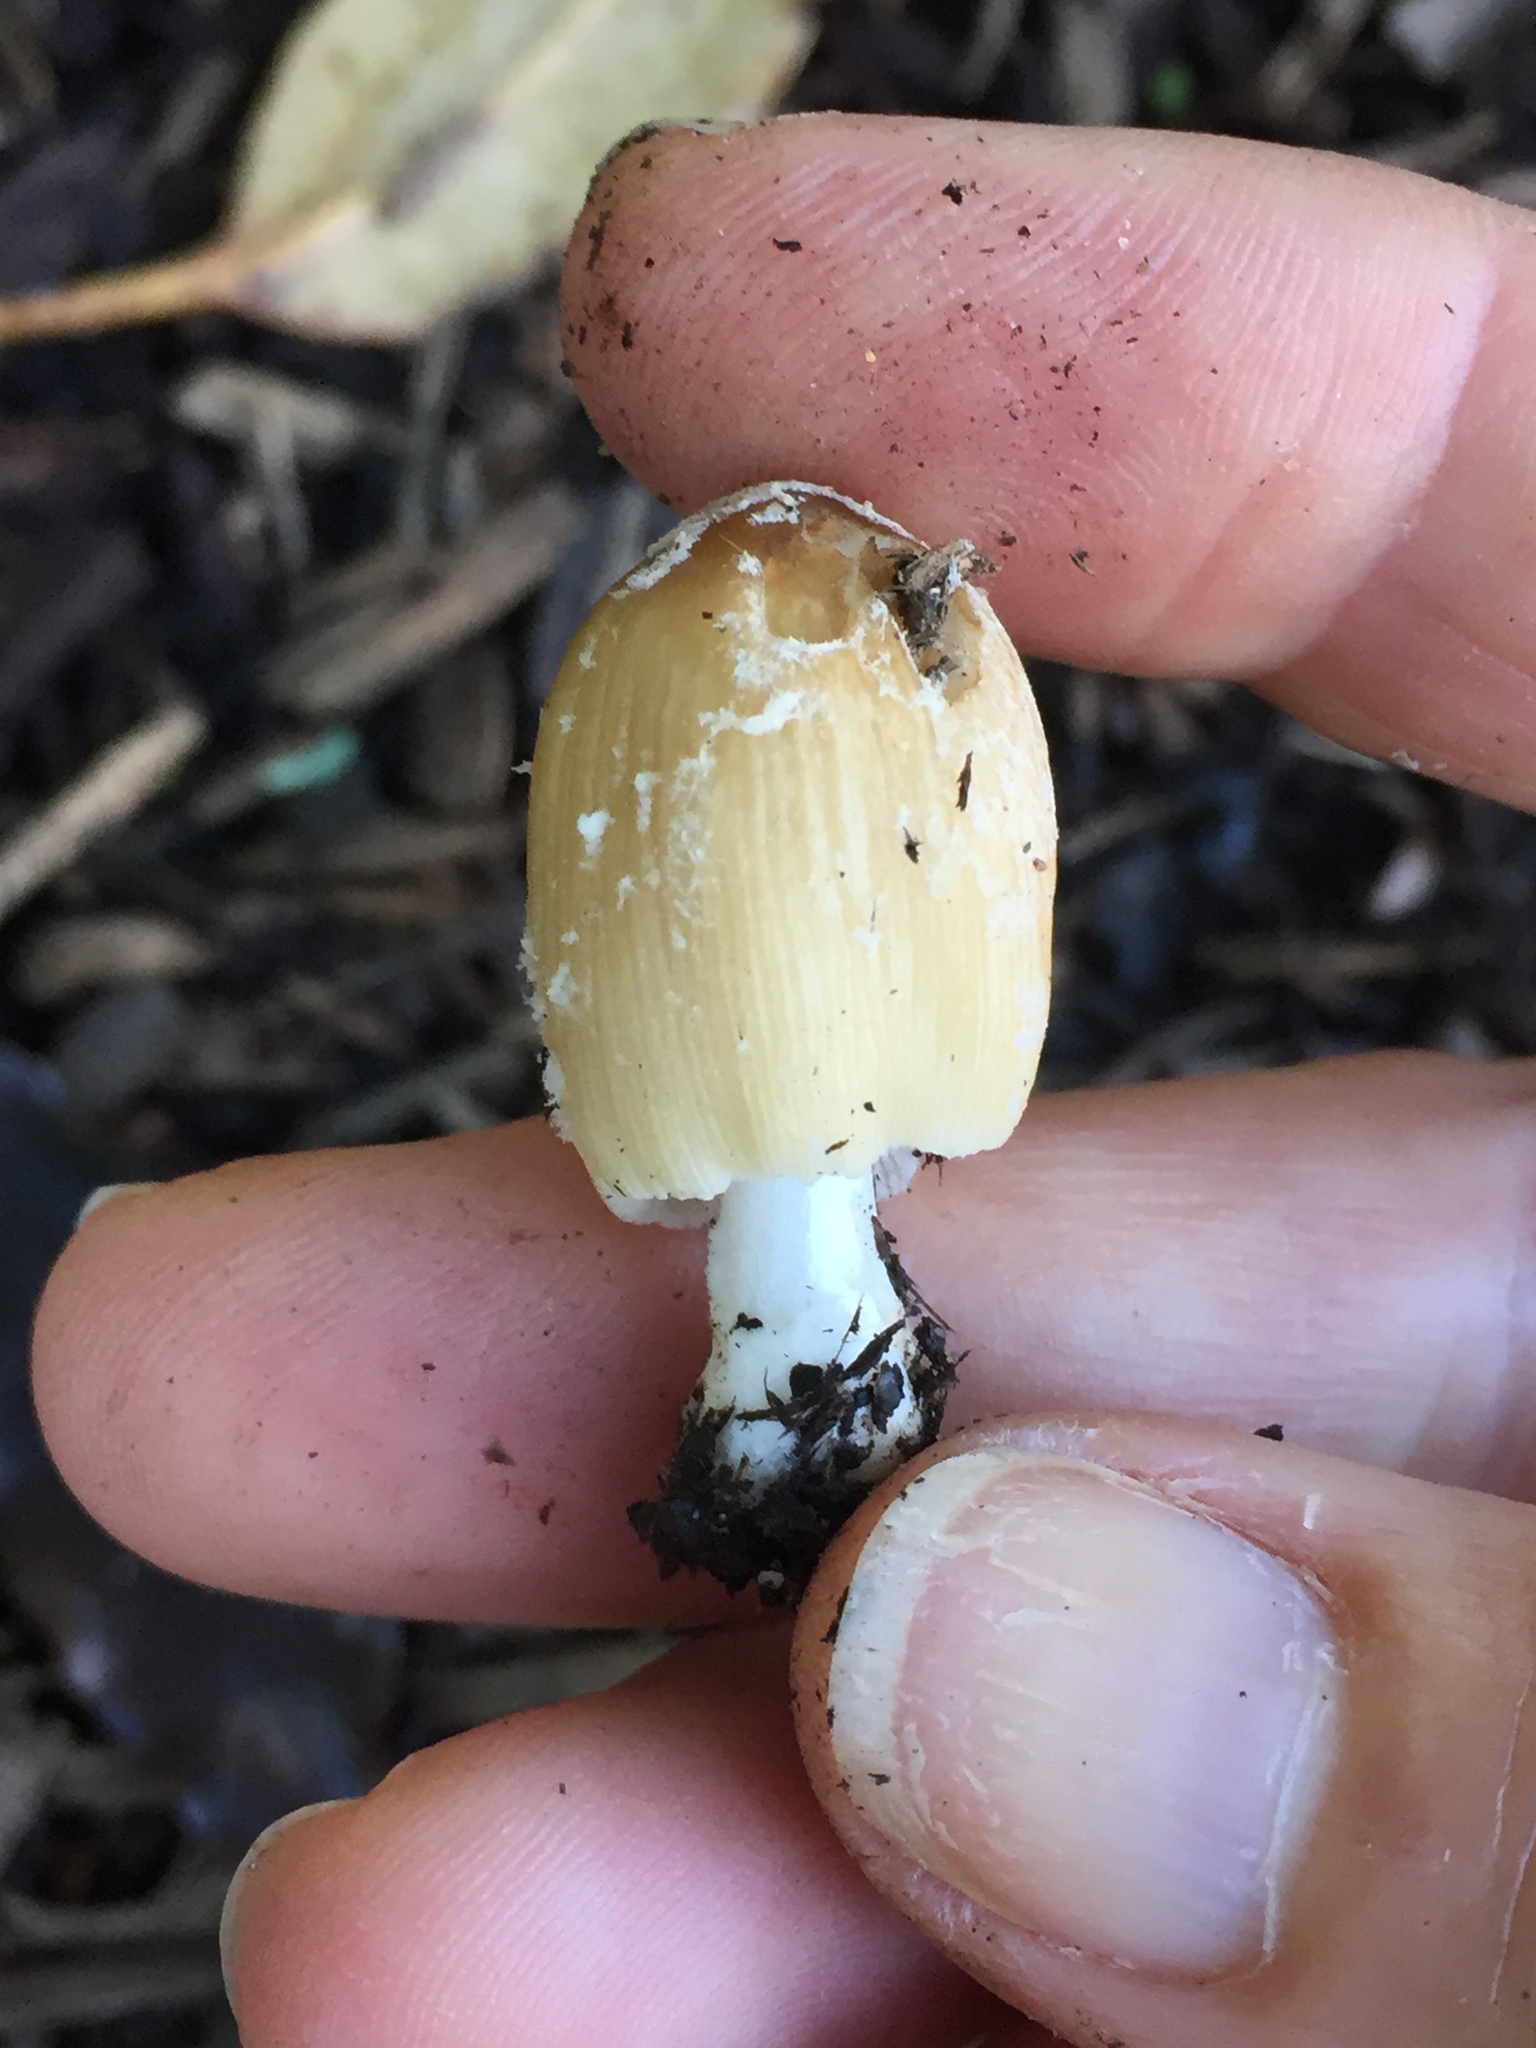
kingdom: Fungi
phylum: Basidiomycota
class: Agaricomycetes
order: Agaricales
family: Psathyrellaceae
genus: Coprinellus
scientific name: Coprinellus micaceus
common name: Glistening ink-cap
